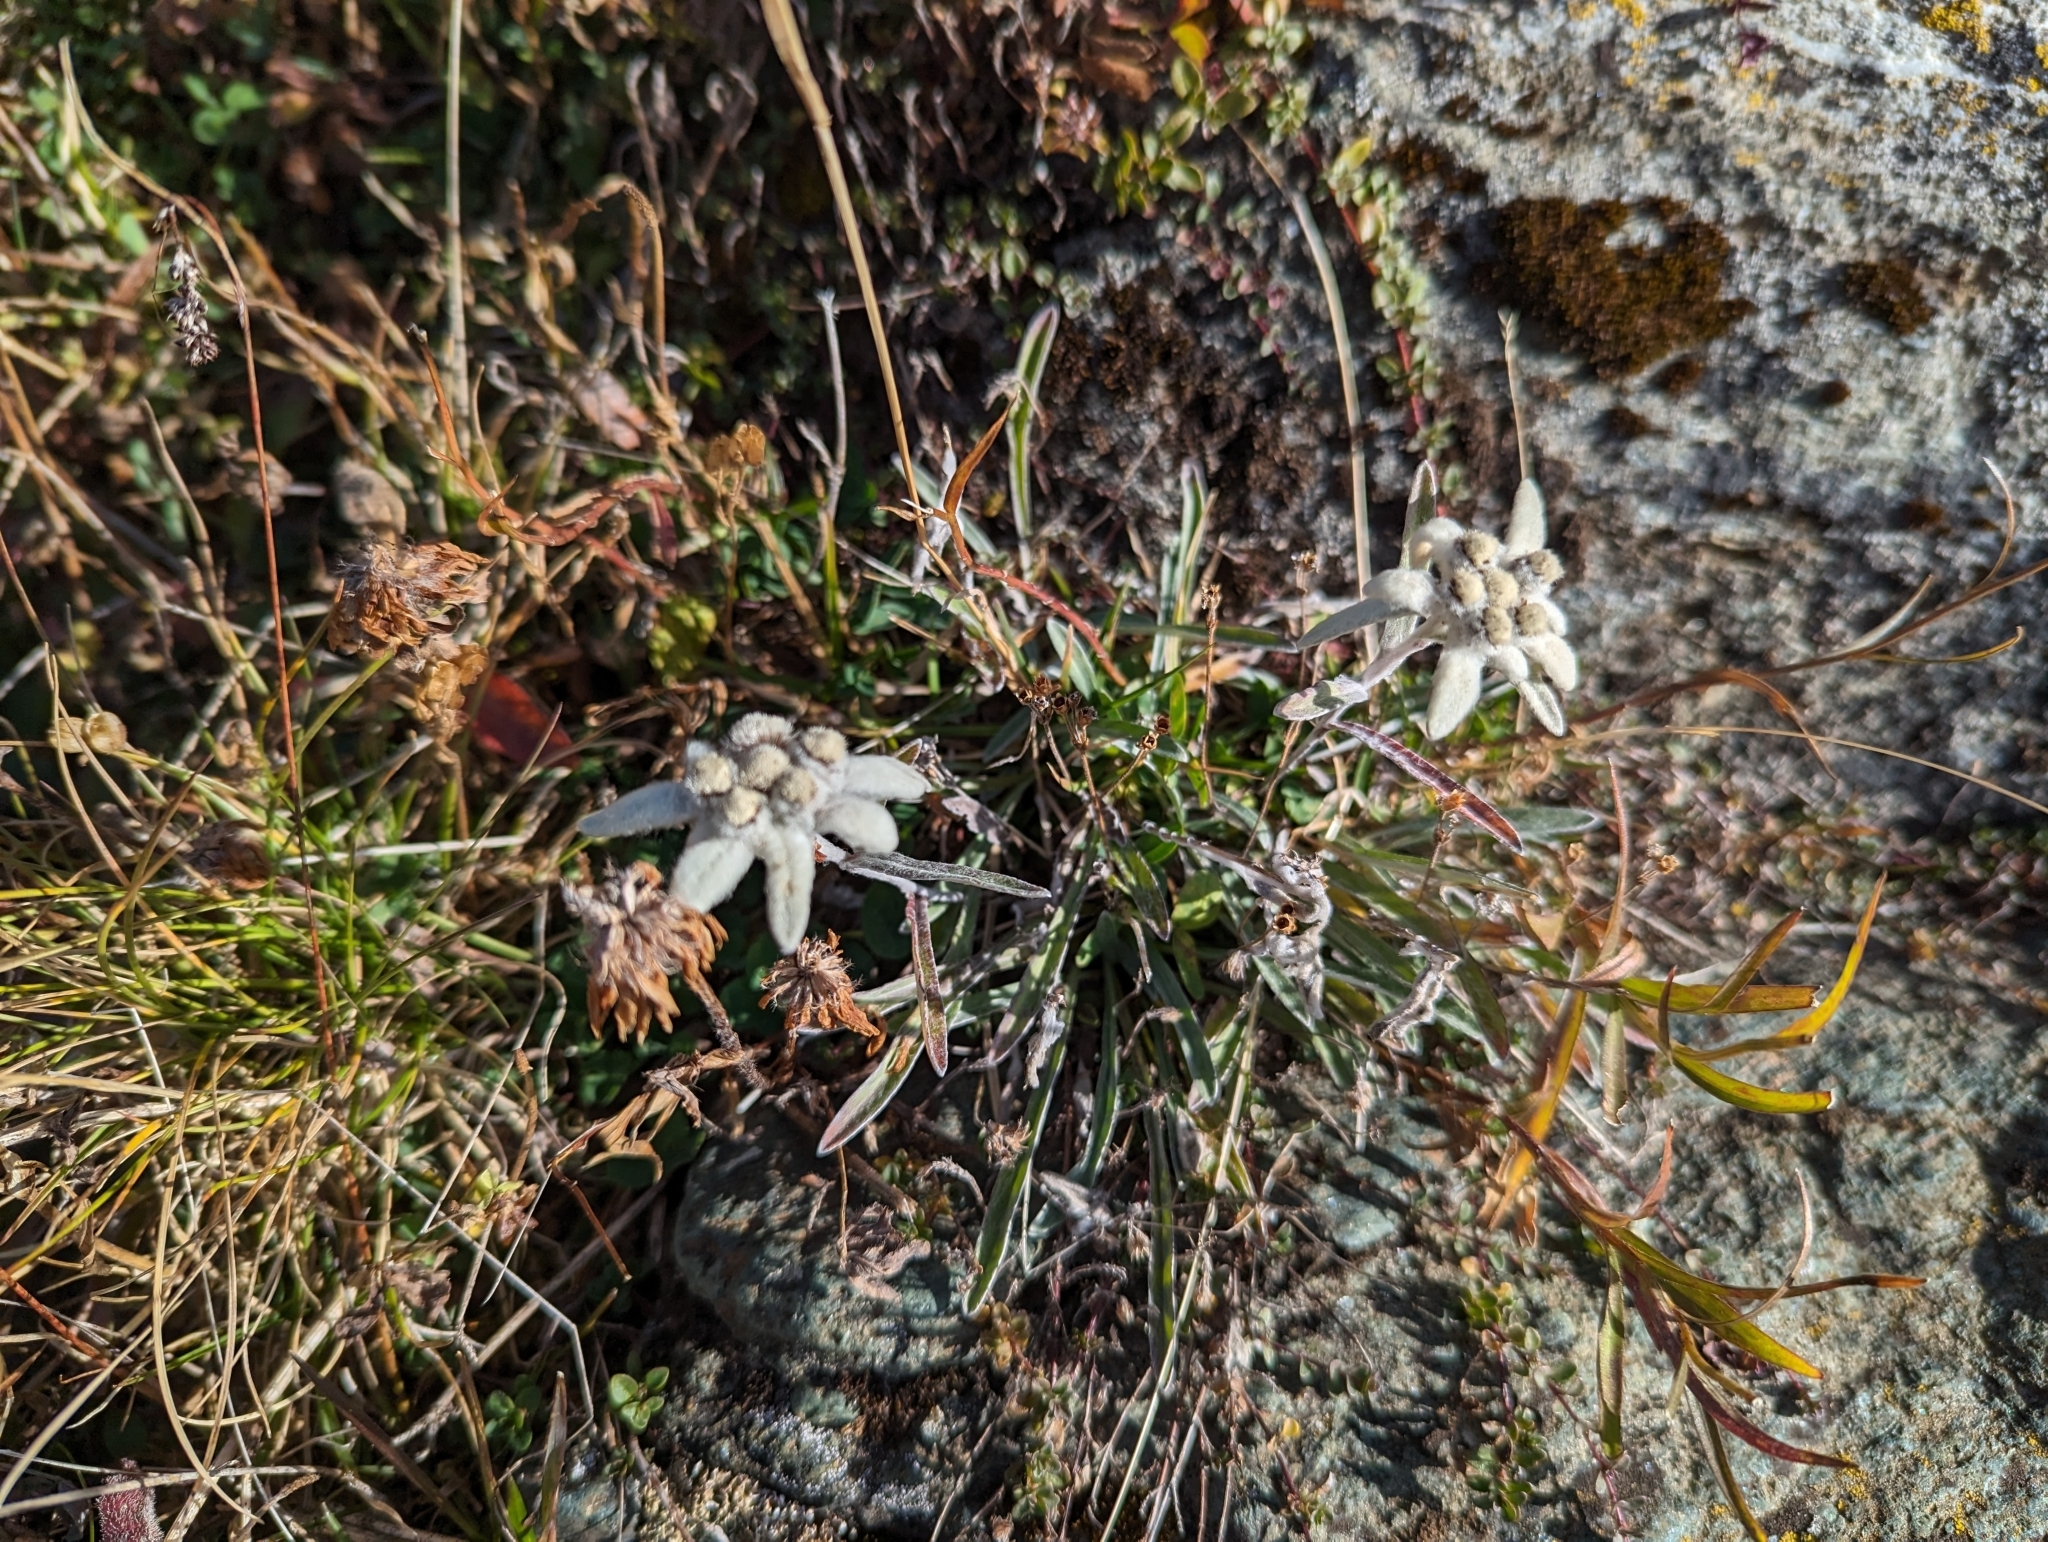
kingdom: Plantae
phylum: Tracheophyta
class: Magnoliopsida
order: Asterales
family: Asteraceae
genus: Leontopodium
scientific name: Leontopodium nivale
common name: Edelweiss
